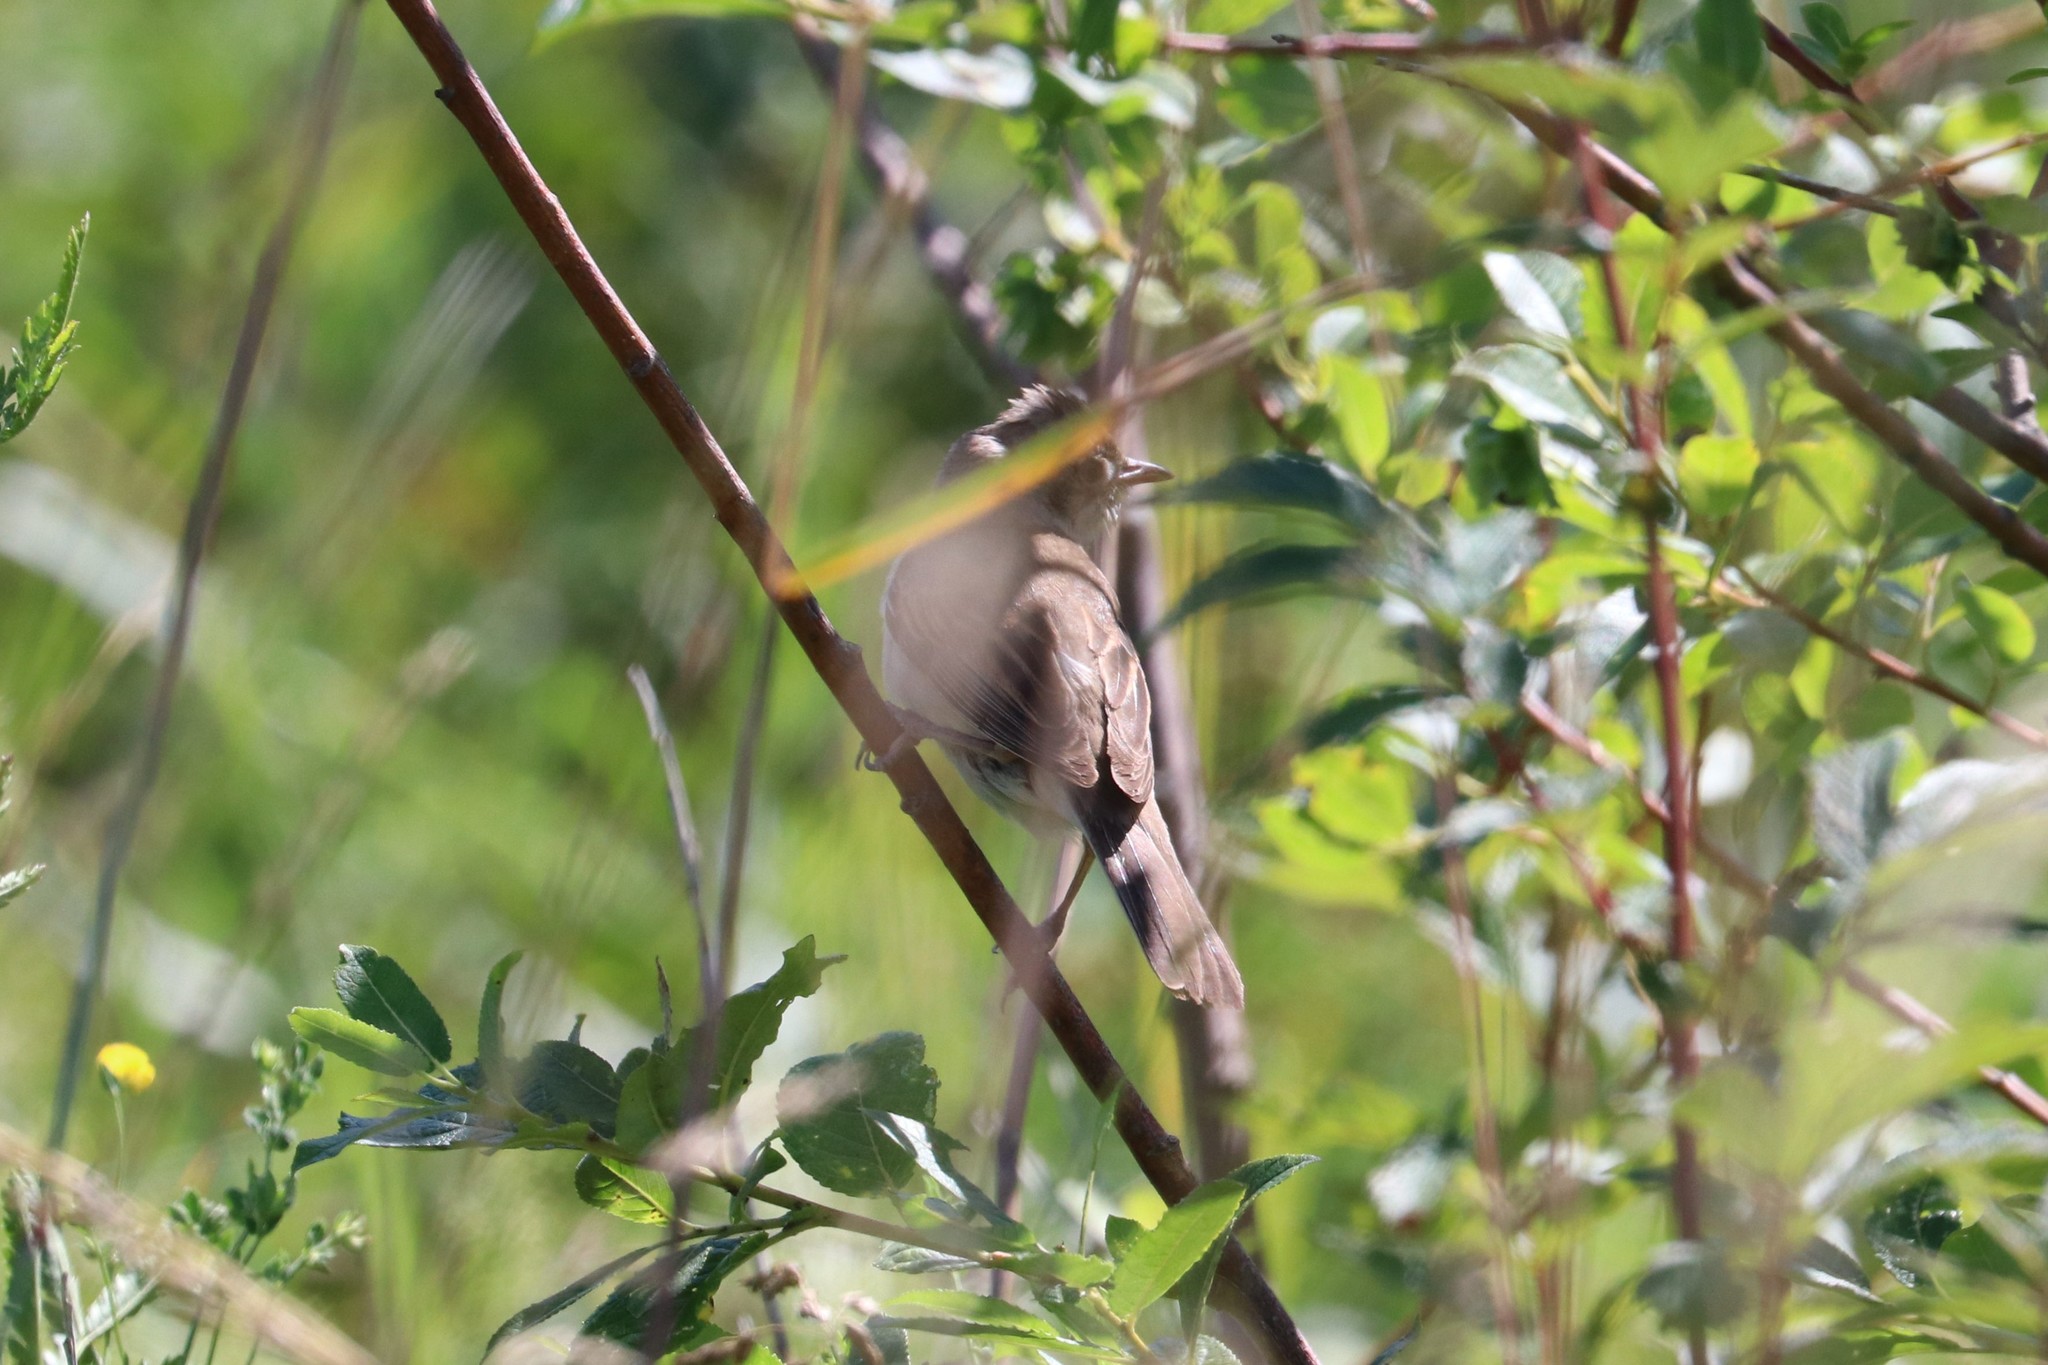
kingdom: Animalia
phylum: Chordata
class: Aves
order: Passeriformes
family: Sylviidae
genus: Sylvia
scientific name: Sylvia communis
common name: Common whitethroat
